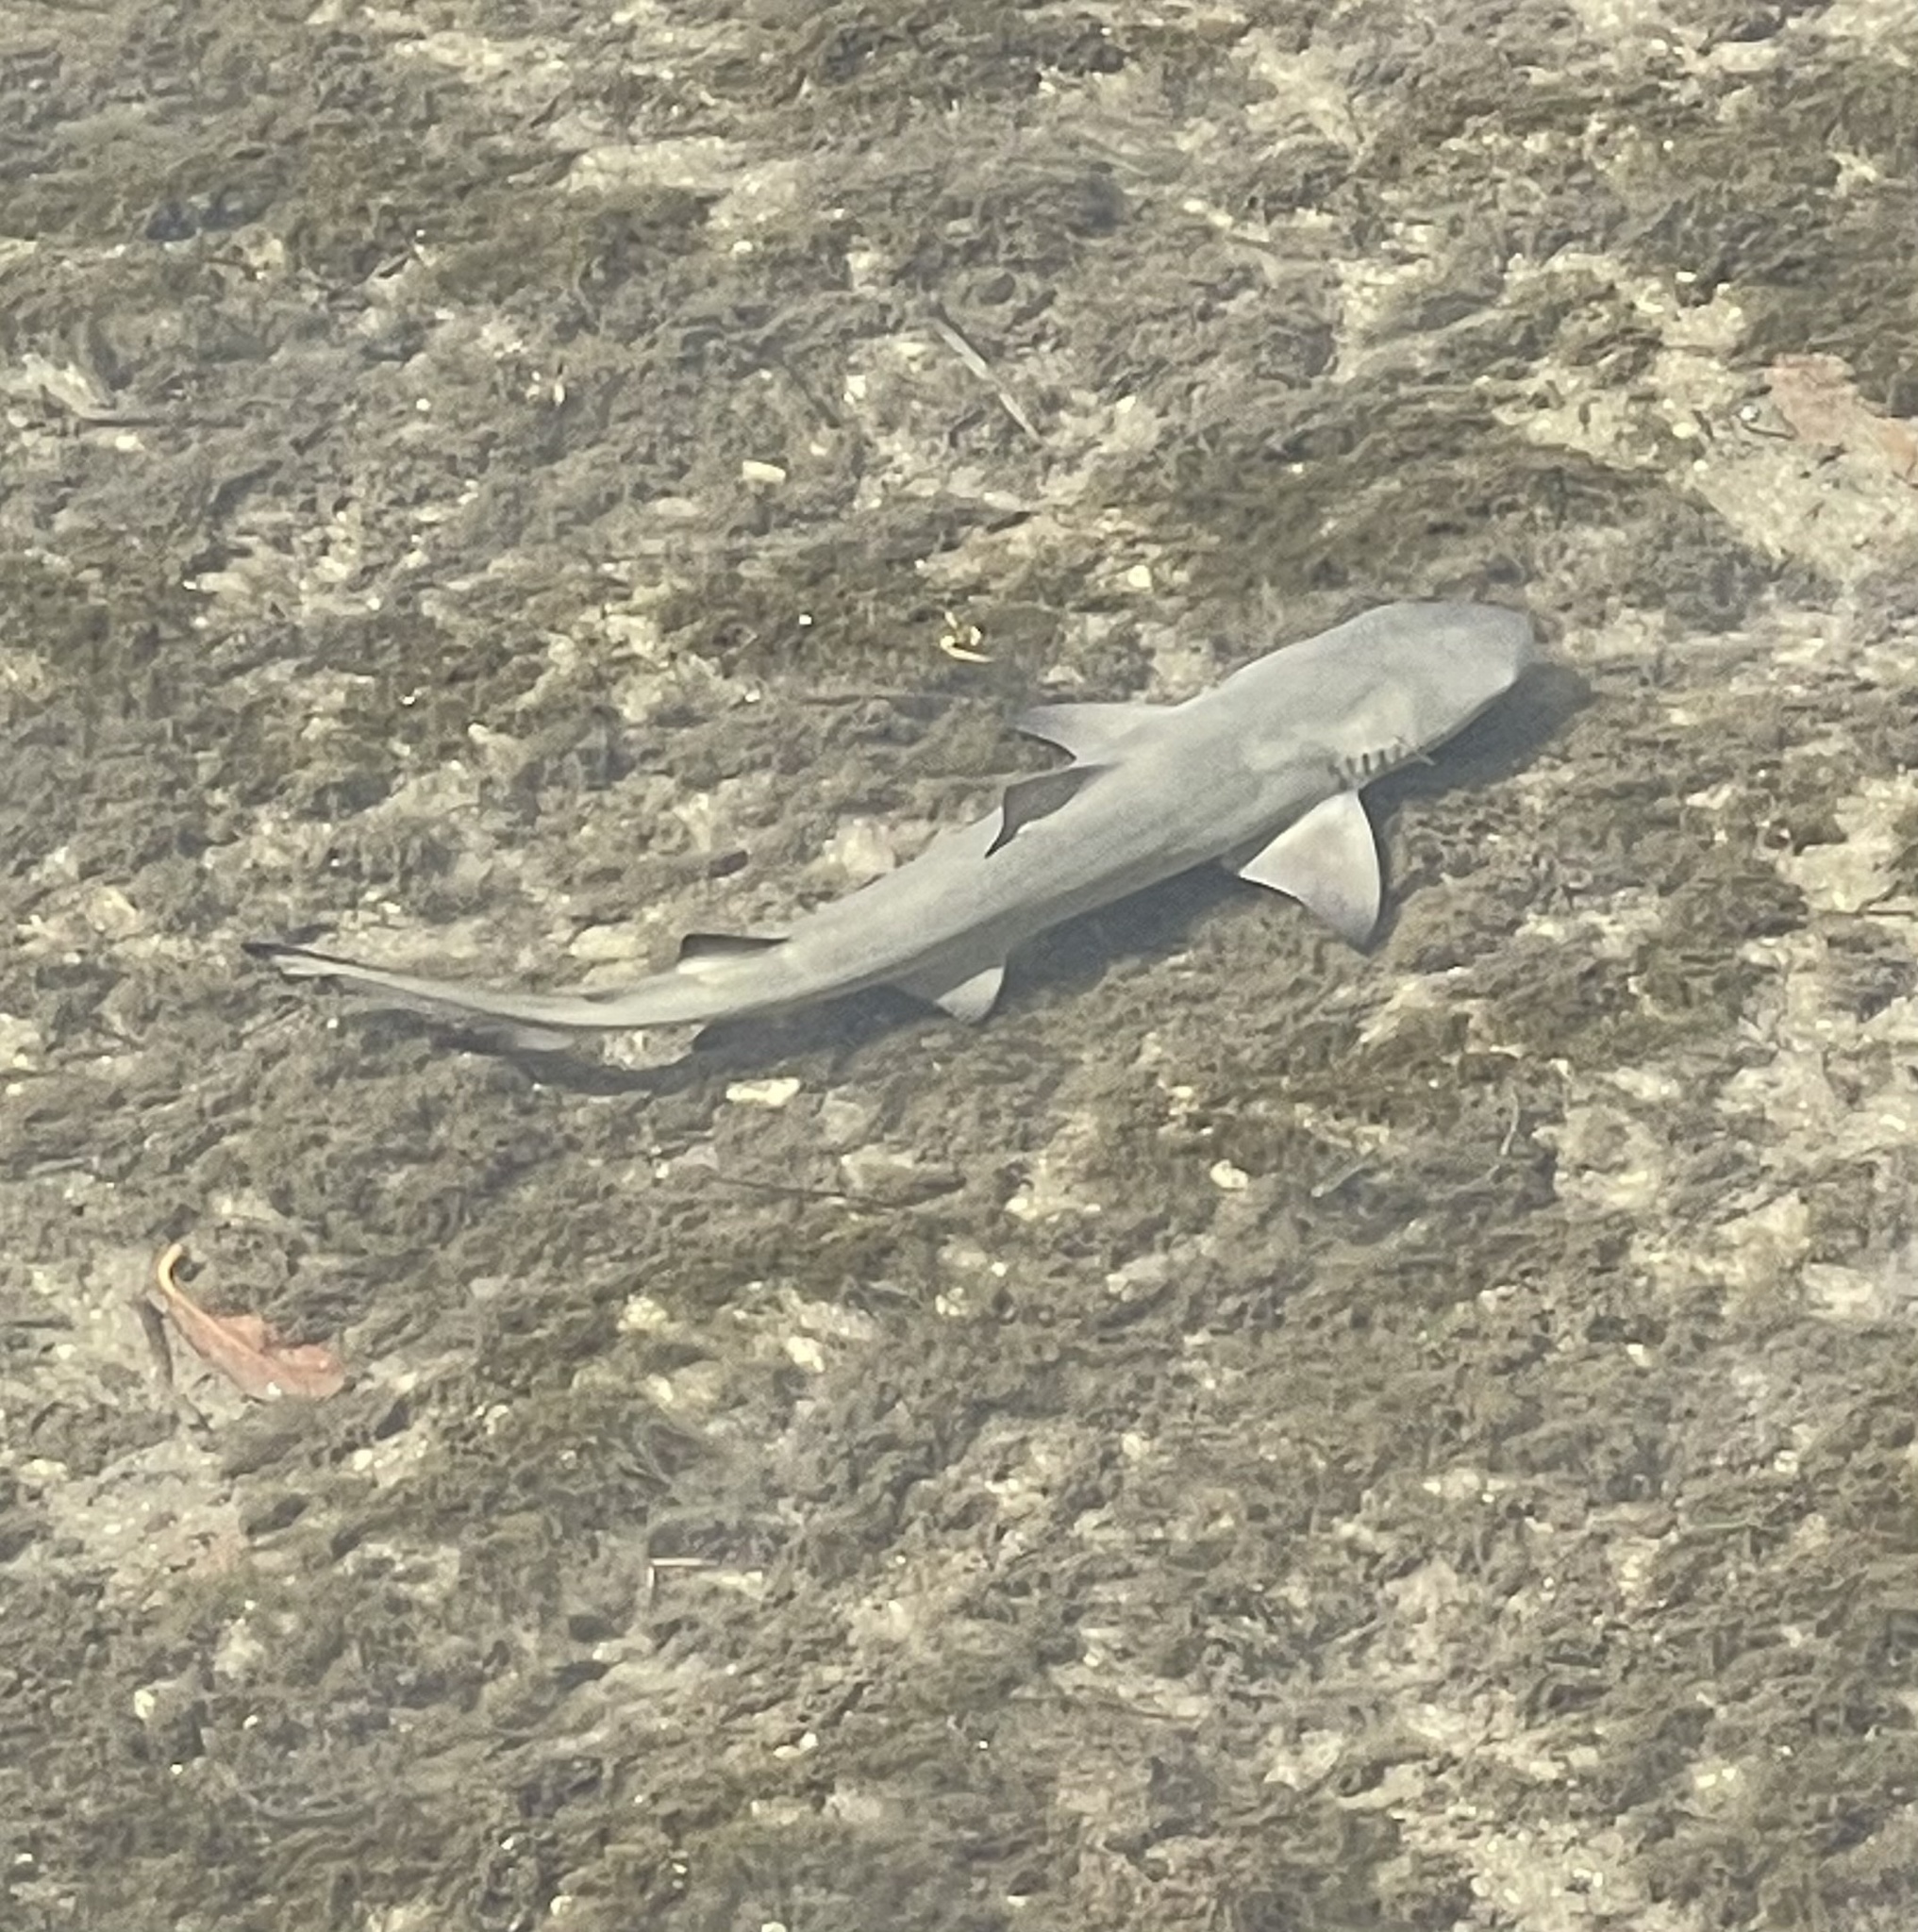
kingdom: Animalia
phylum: Chordata
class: Elasmobranchii
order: Carcharhiniformes
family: Carcharhinidae
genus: Negaprion
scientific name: Negaprion brevirostris
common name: Lemon shark
